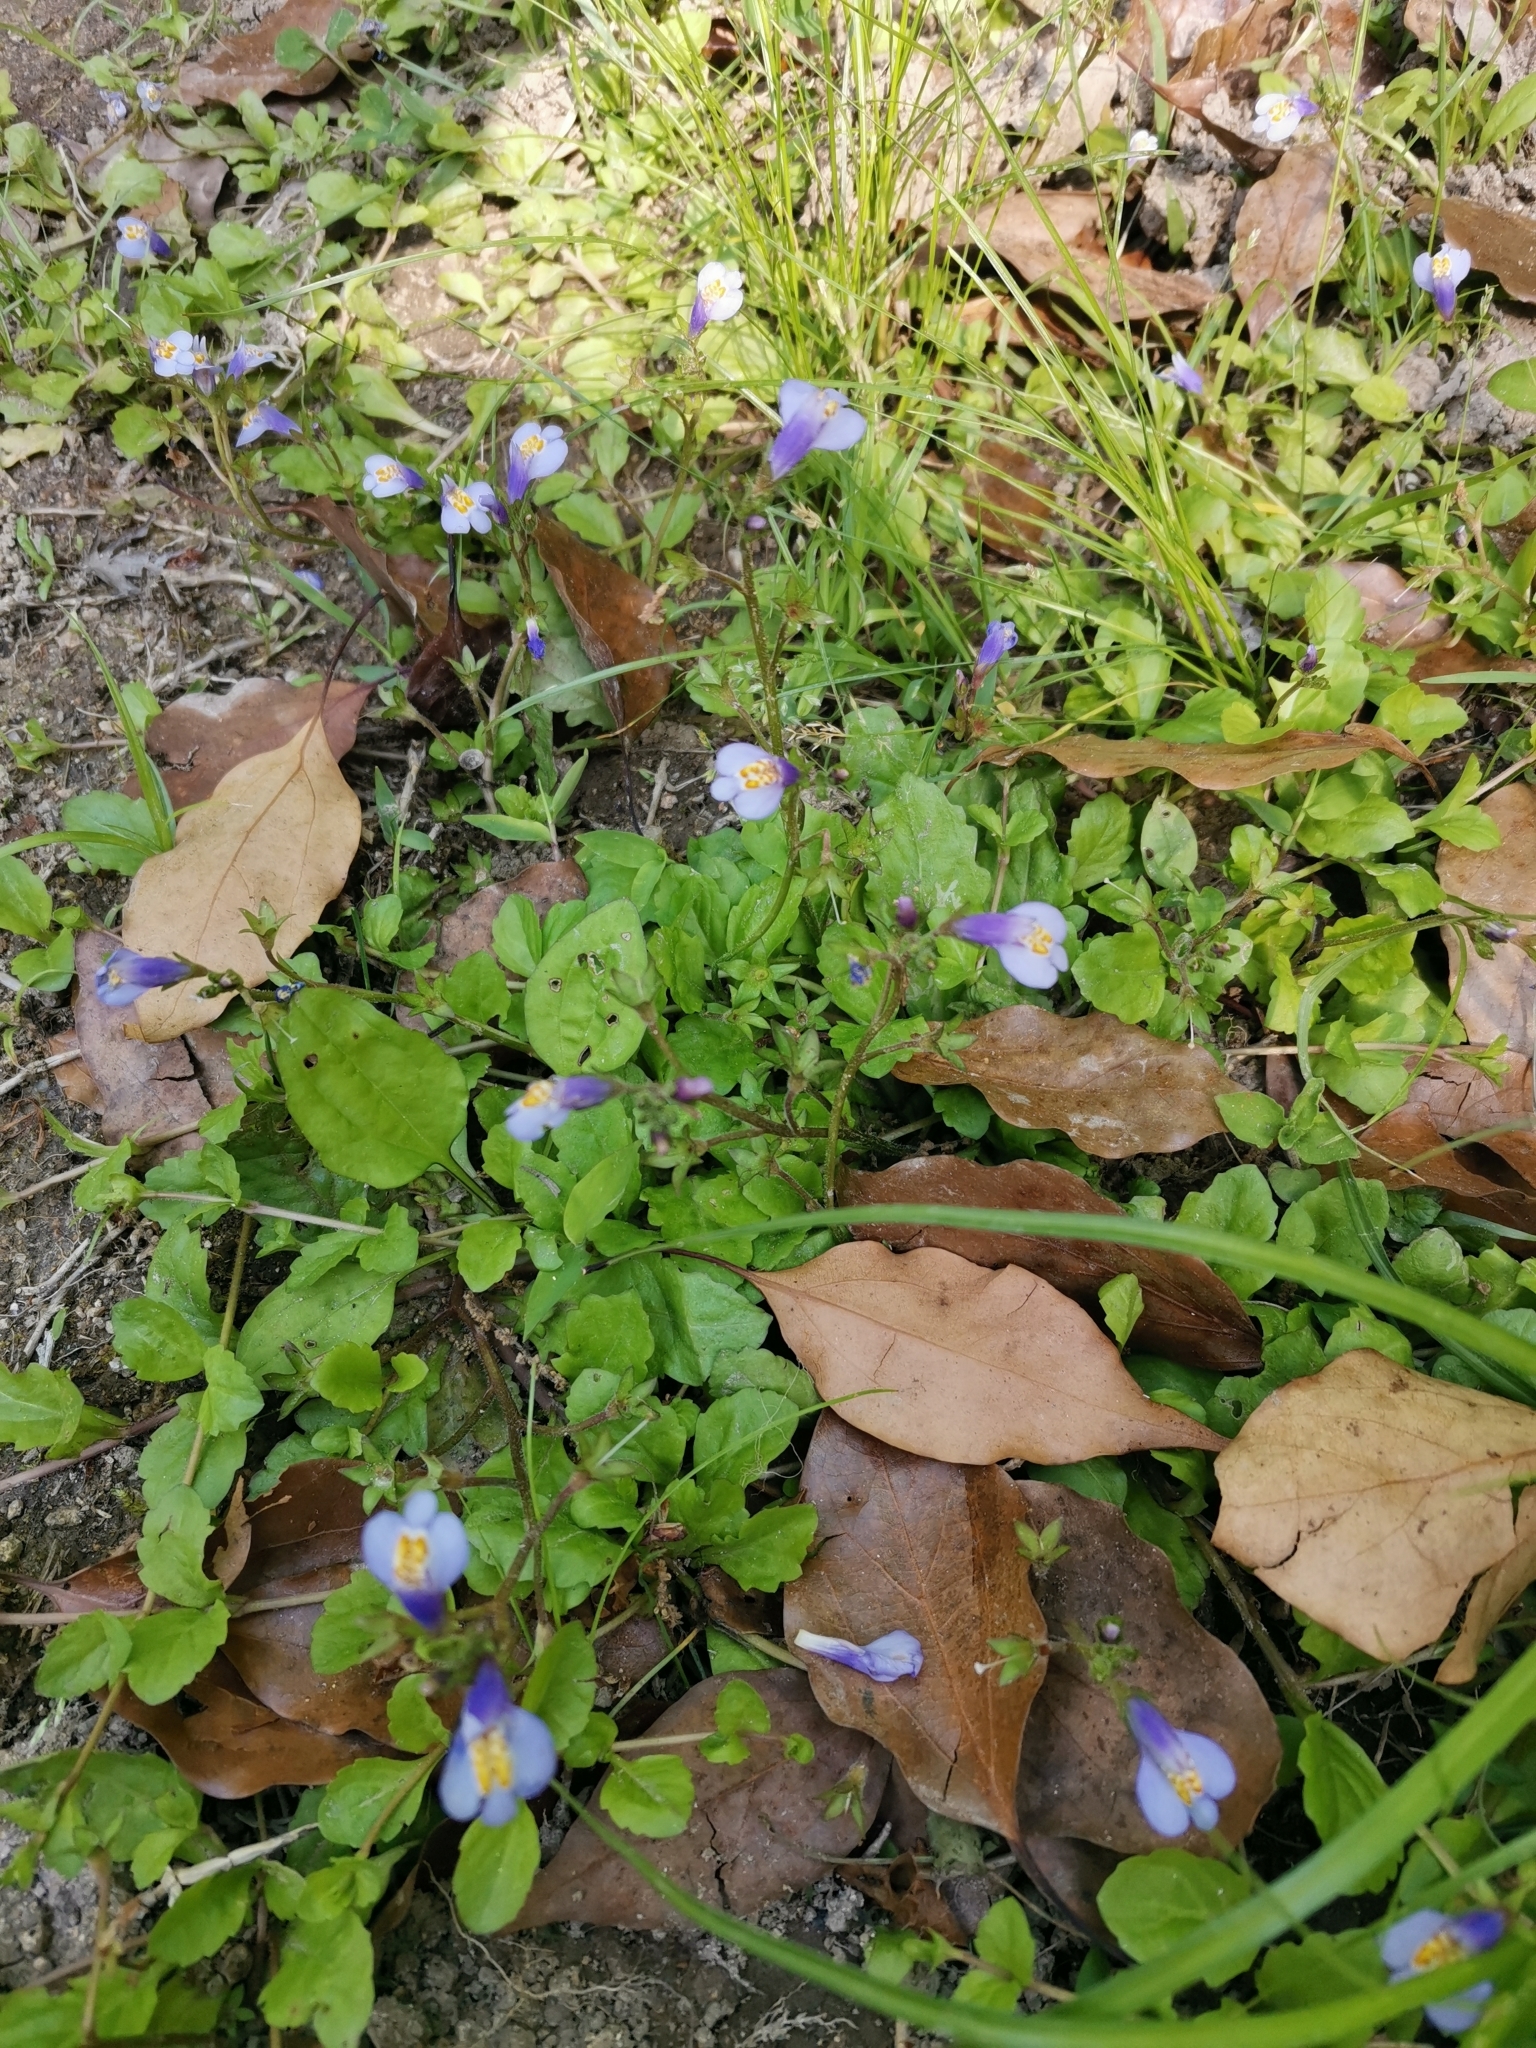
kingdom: Plantae
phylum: Tracheophyta
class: Magnoliopsida
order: Lamiales
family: Mazaceae
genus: Mazus
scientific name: Mazus miquelii
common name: Miquel's mazus
